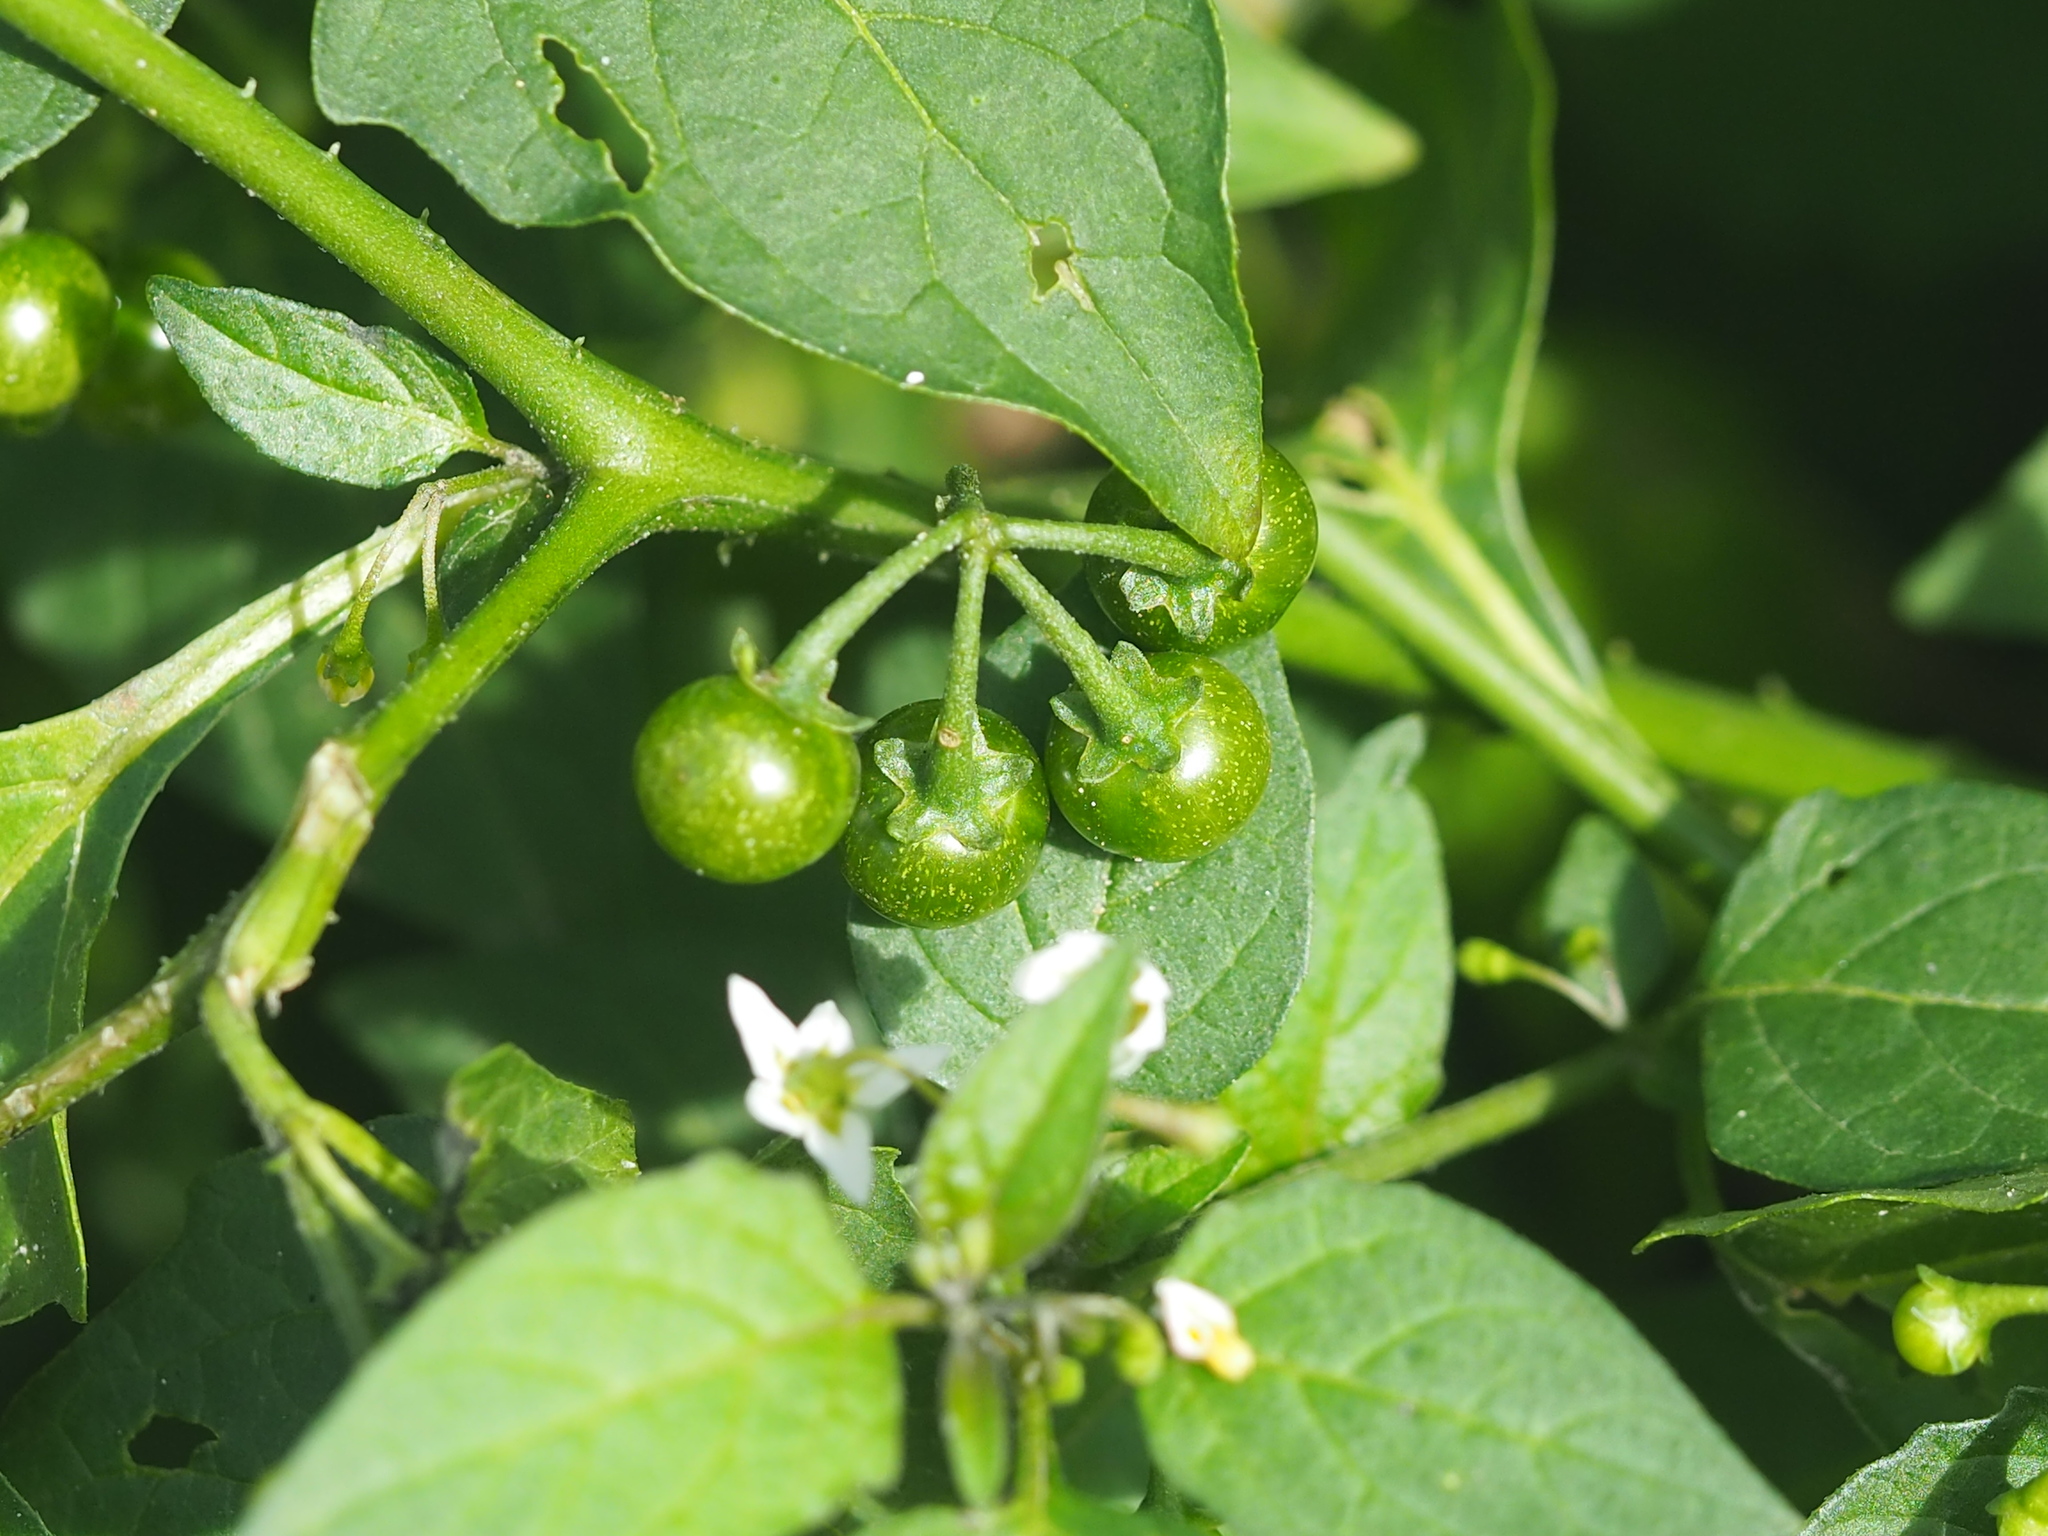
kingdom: Plantae
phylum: Tracheophyta
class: Magnoliopsida
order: Solanales
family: Solanaceae
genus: Solanum
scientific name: Solanum americanum
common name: American black nightshade
